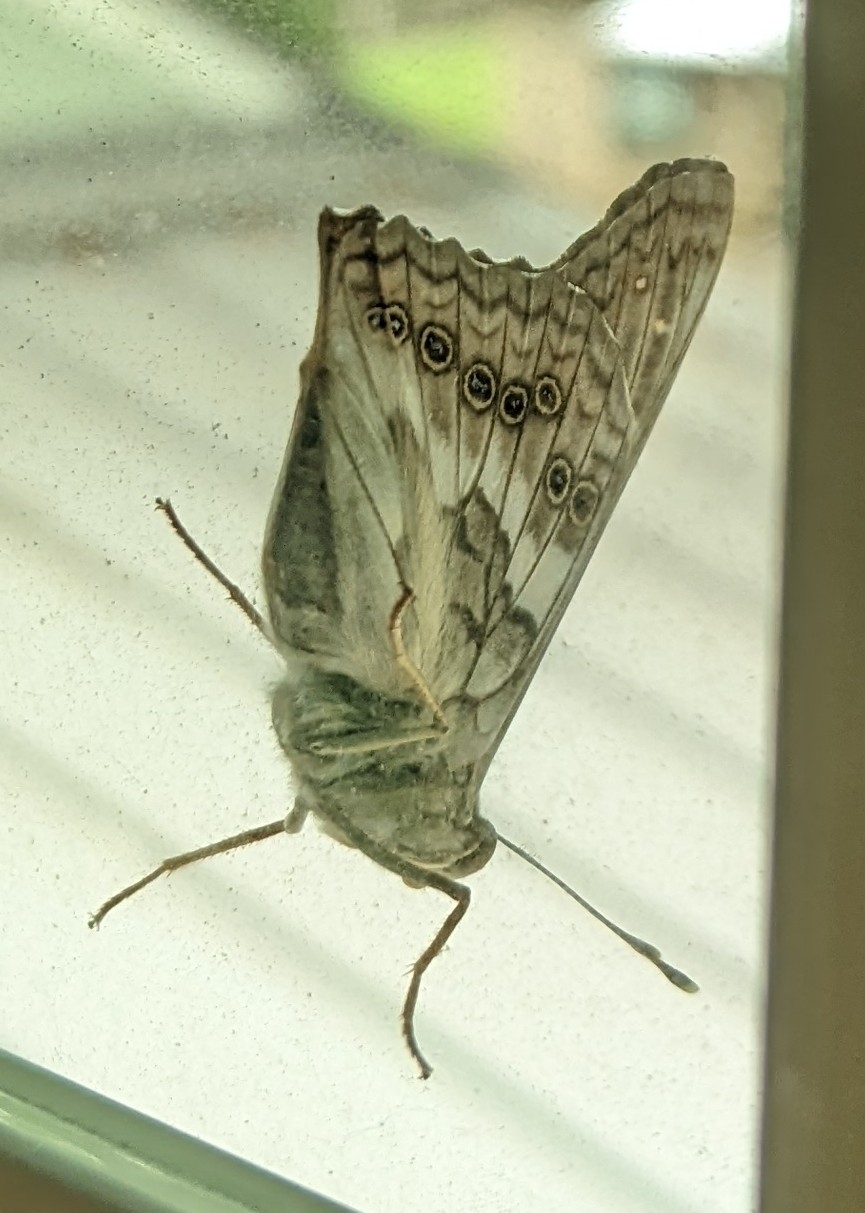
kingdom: Animalia
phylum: Arthropoda
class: Insecta
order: Lepidoptera
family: Nymphalidae
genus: Asterocampa
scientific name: Asterocampa clyton
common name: Tawny emperor
